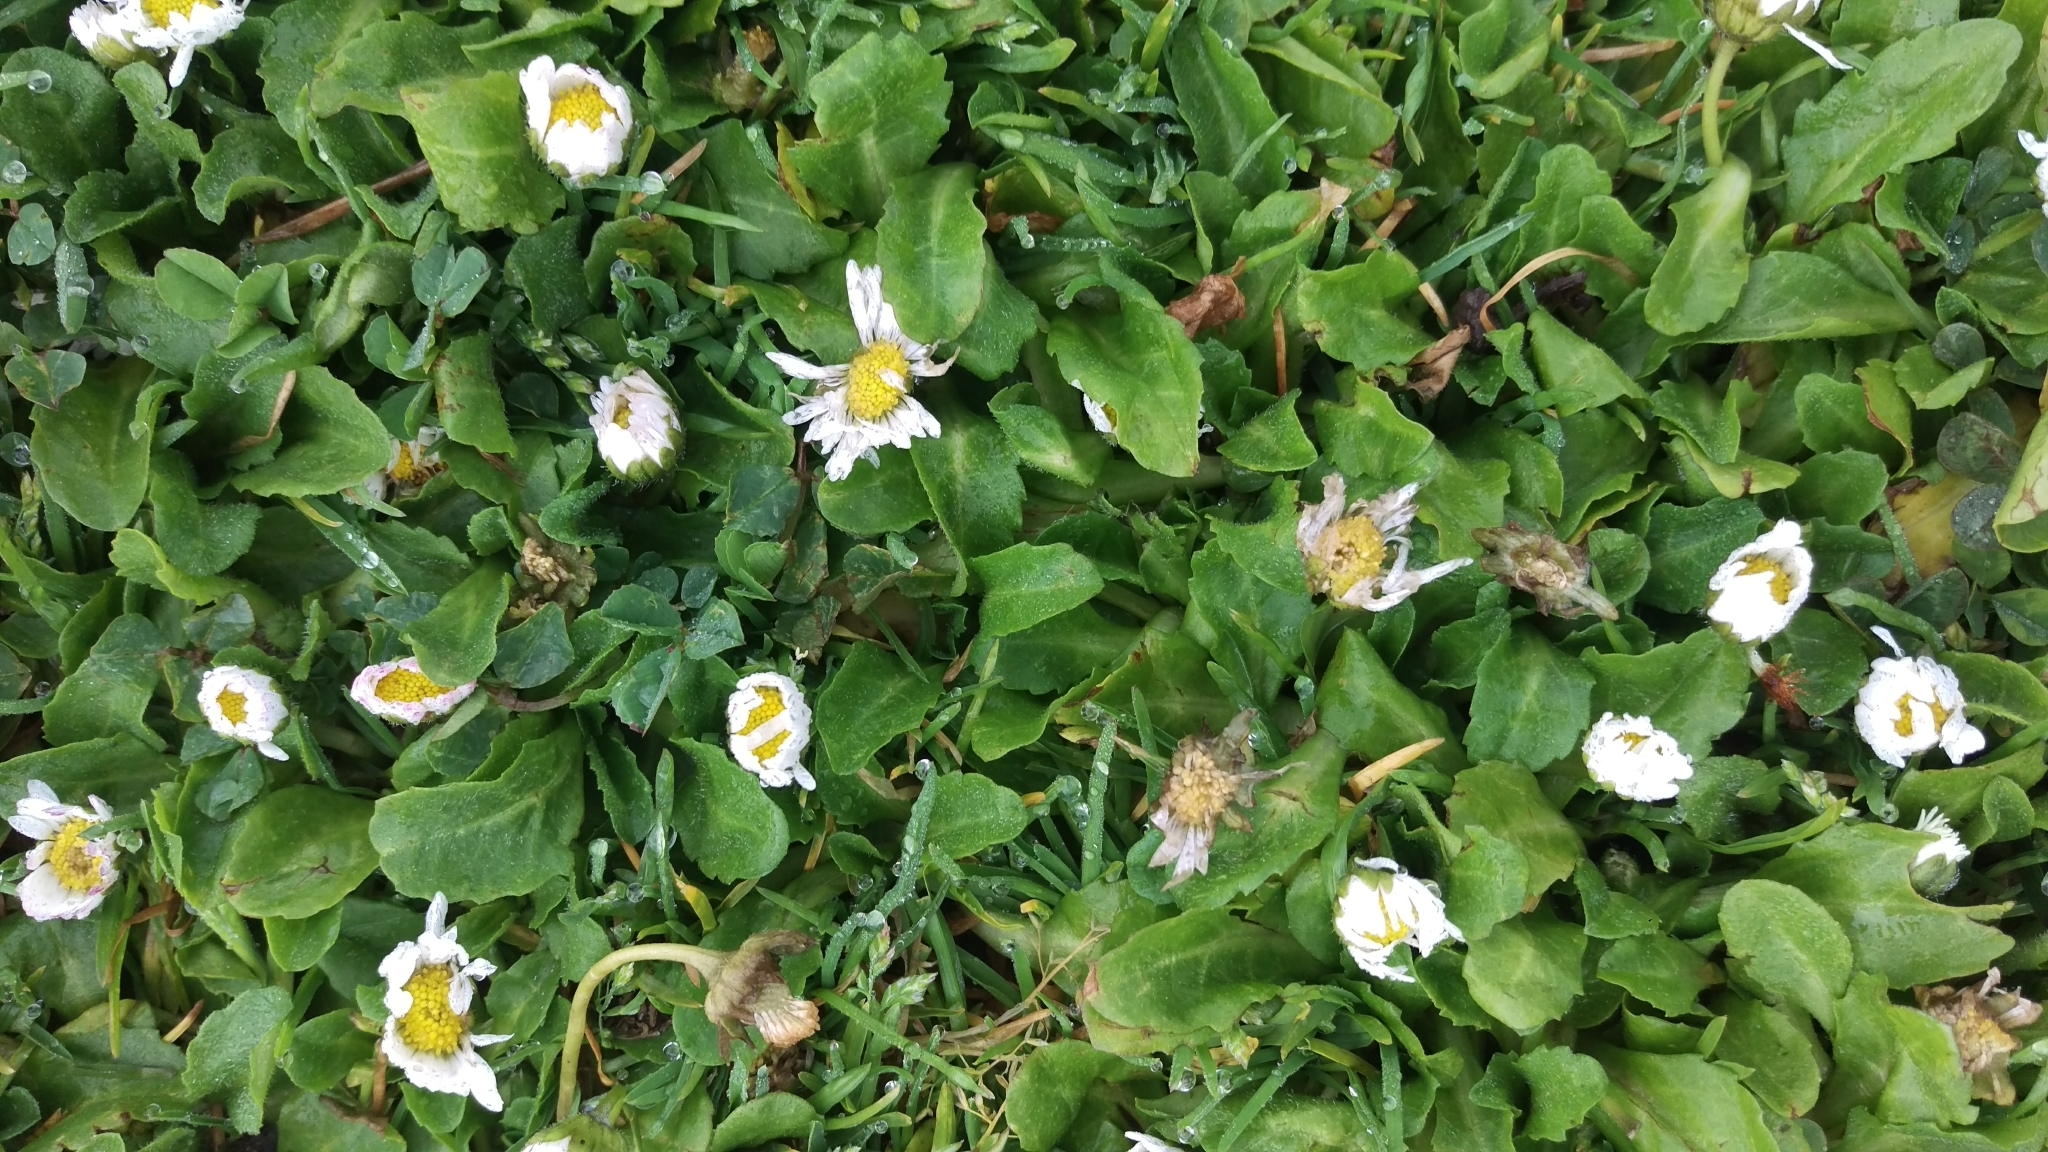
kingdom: Plantae
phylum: Tracheophyta
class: Magnoliopsida
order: Asterales
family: Asteraceae
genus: Bellis
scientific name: Bellis perennis
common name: Lawndaisy
